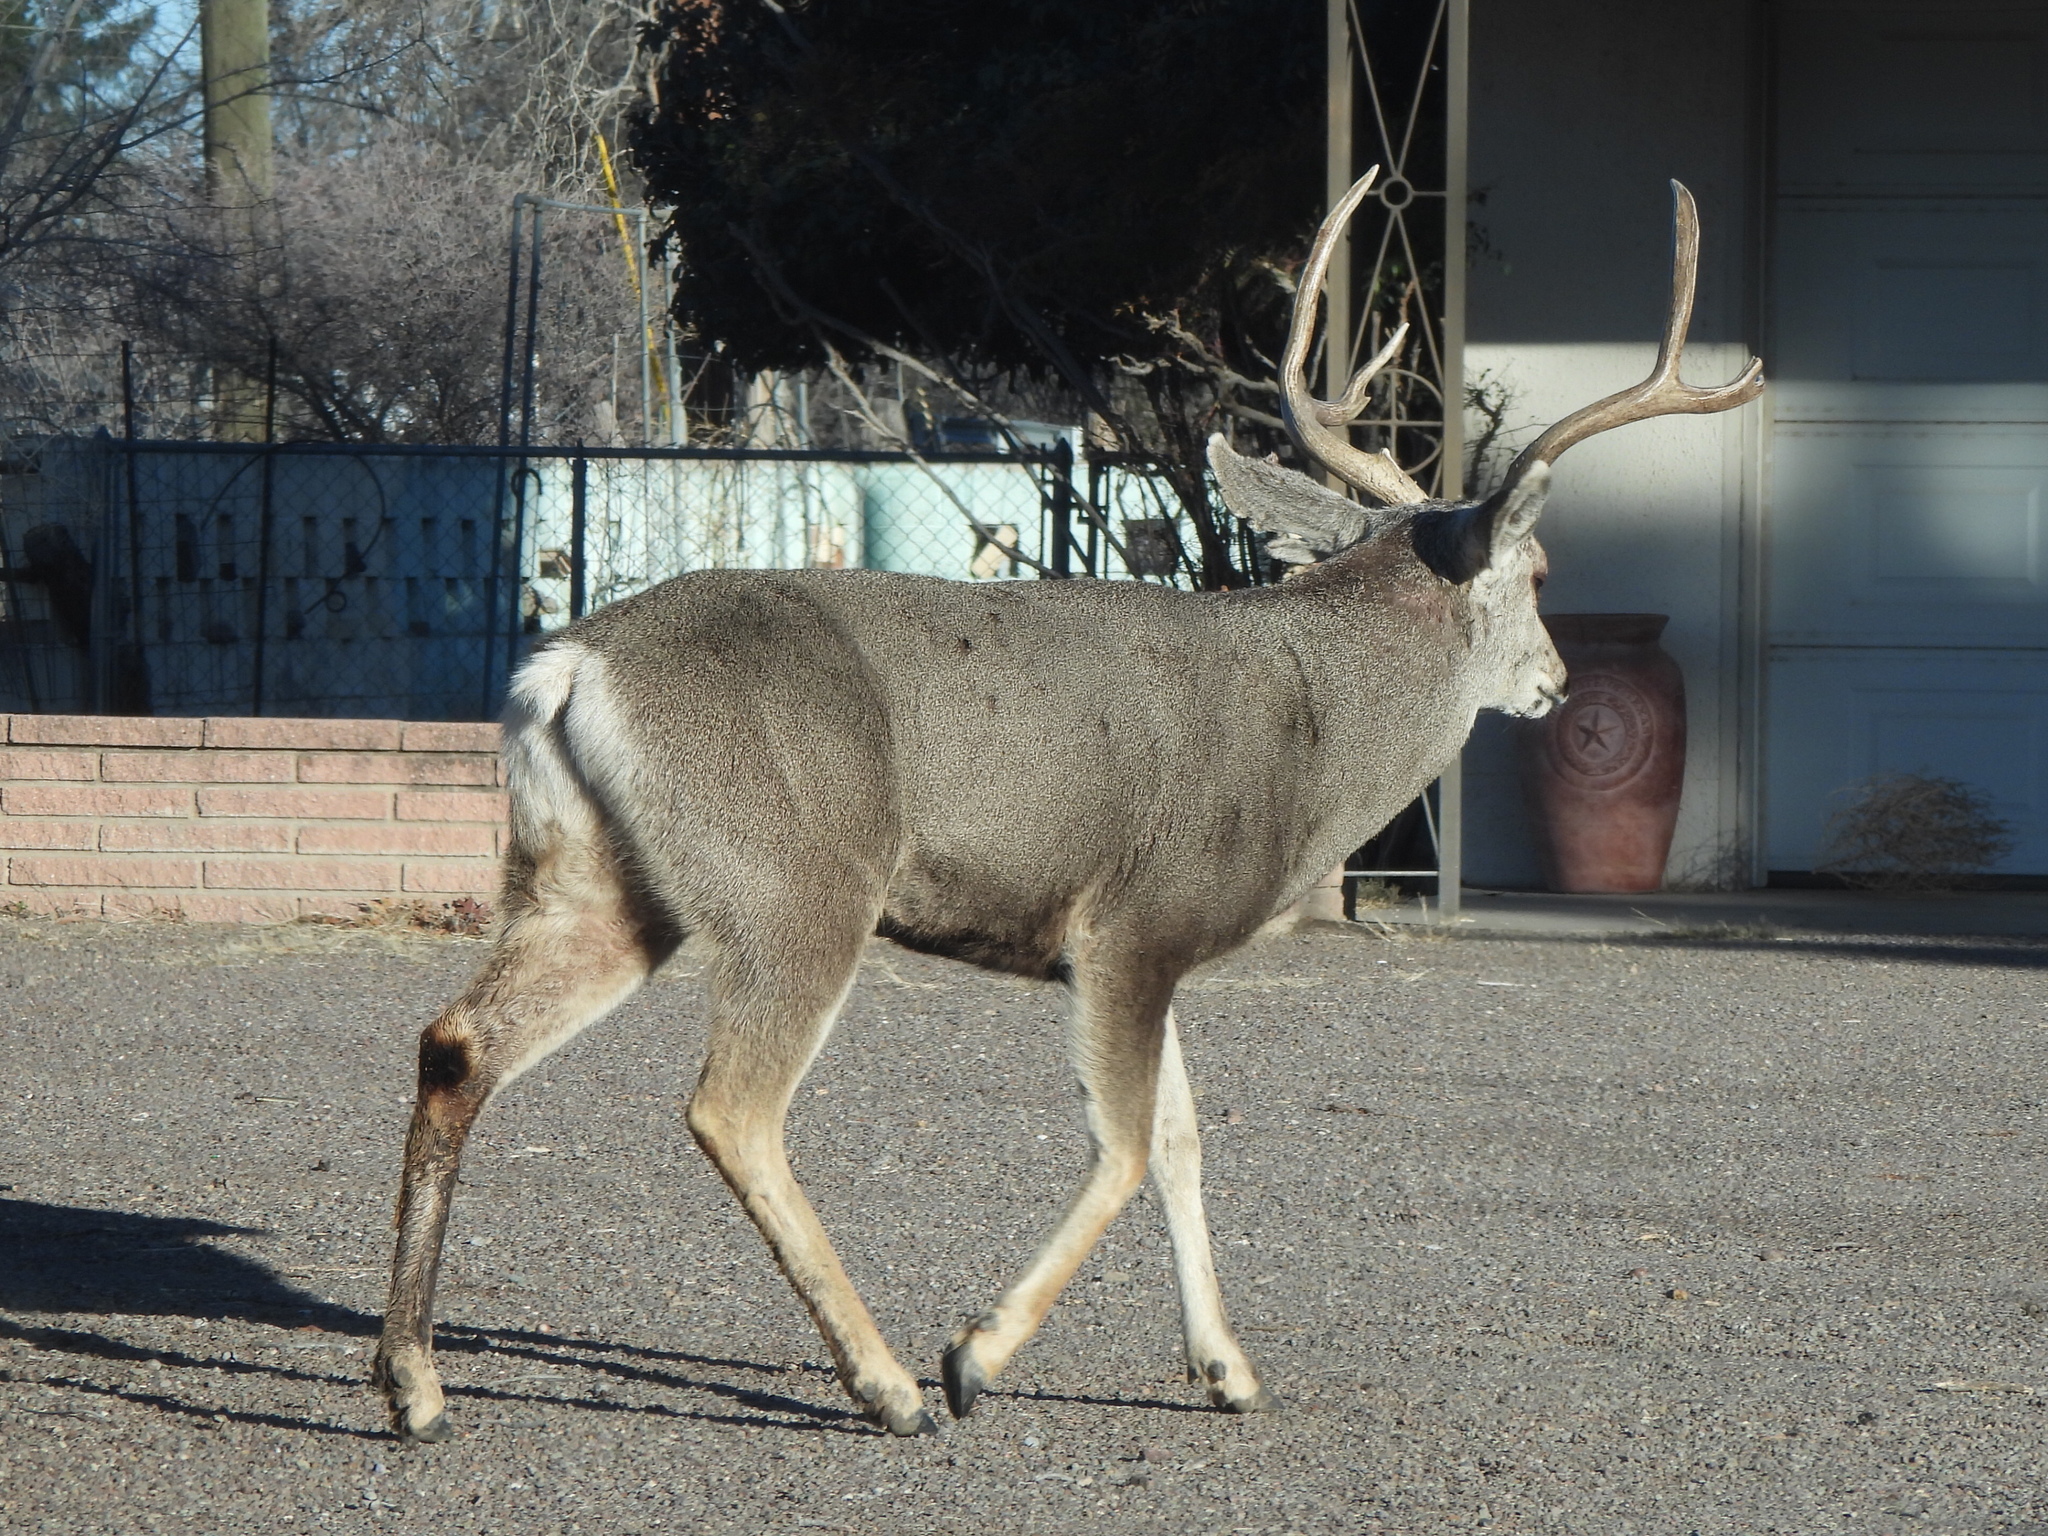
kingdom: Animalia
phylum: Chordata
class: Mammalia
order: Artiodactyla
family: Cervidae
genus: Odocoileus
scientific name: Odocoileus hemionus
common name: Mule deer
